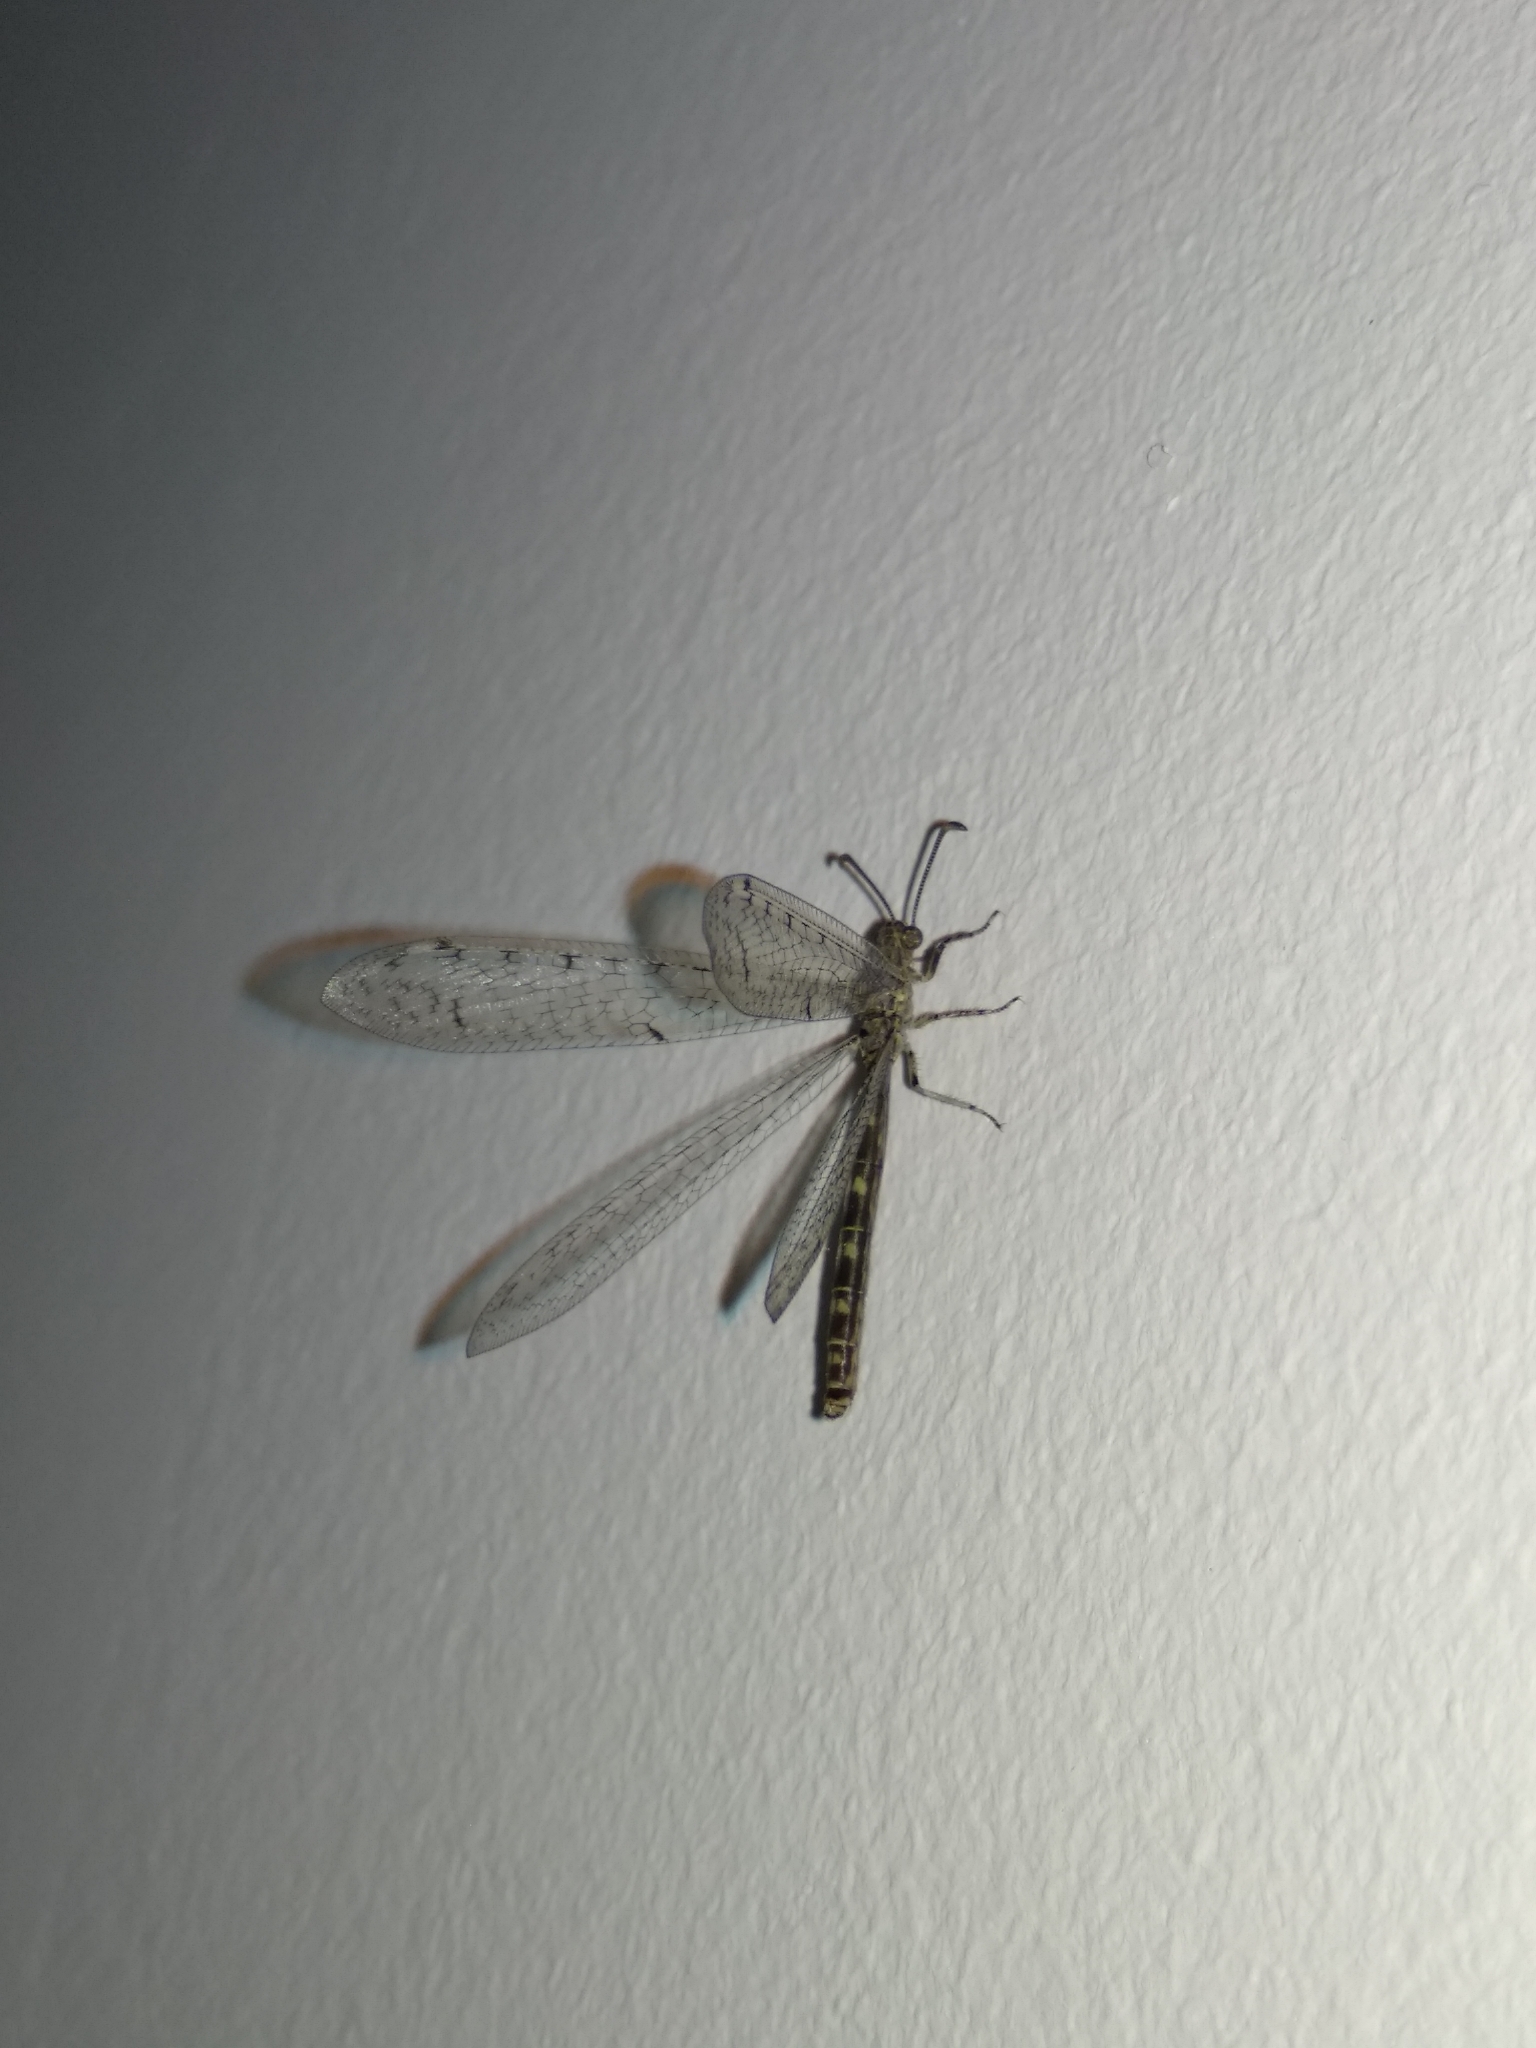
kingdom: Animalia
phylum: Arthropoda
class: Insecta
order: Neuroptera
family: Myrmeleontidae
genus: Distoleon
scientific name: Distoleon tetragrammicus
